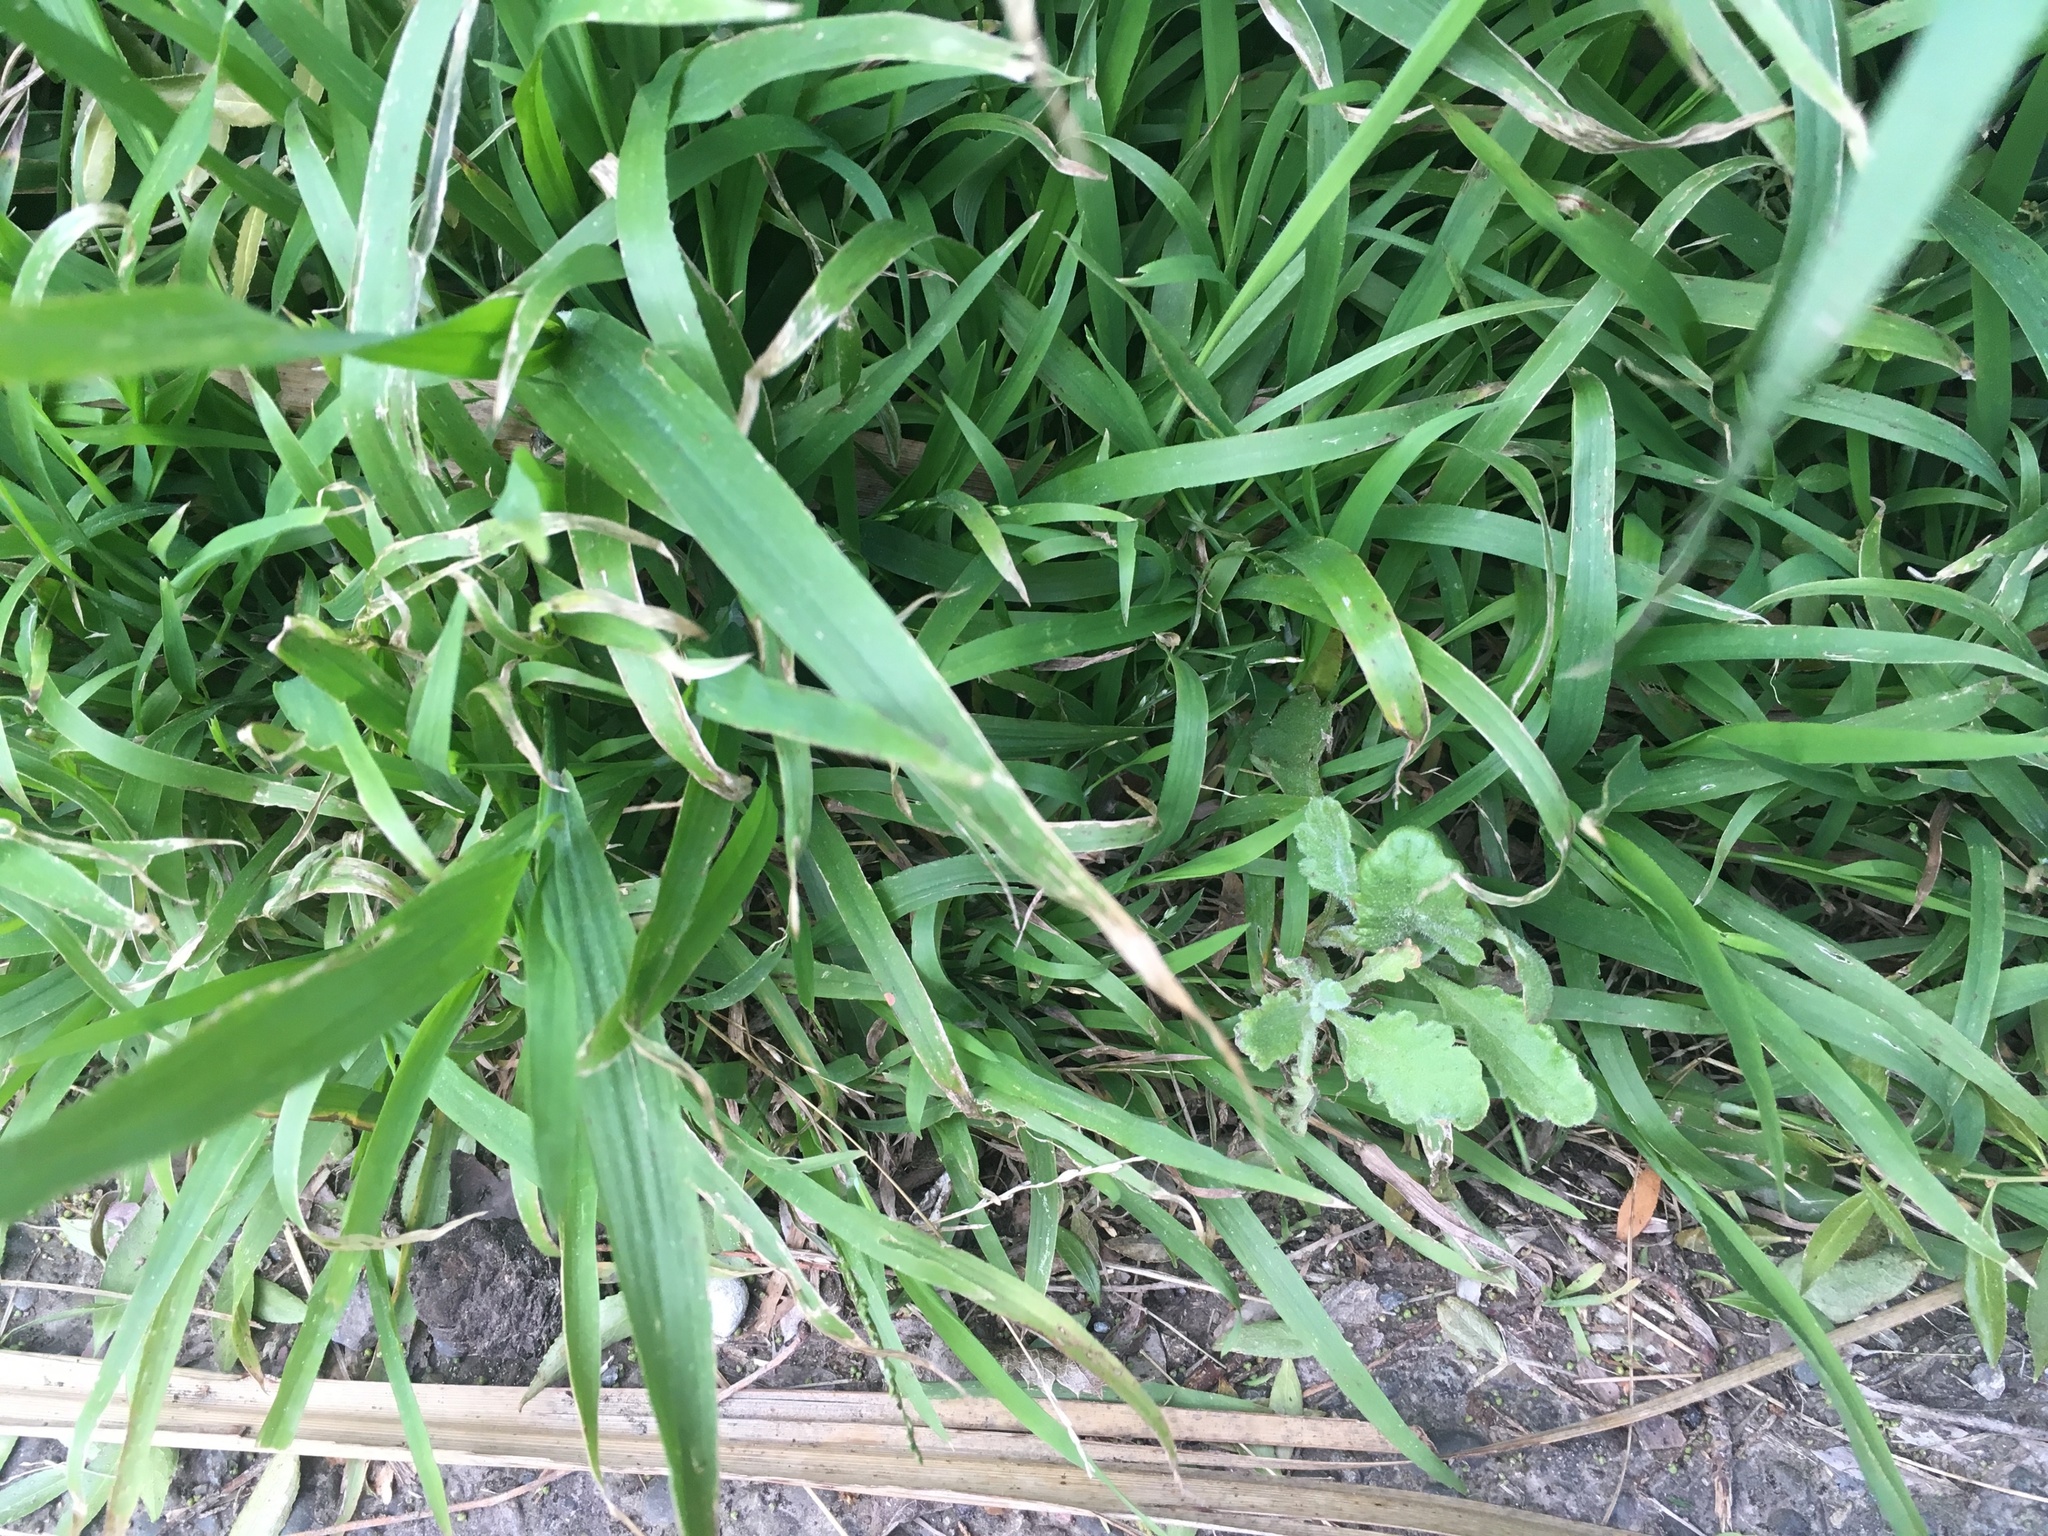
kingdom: Plantae
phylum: Tracheophyta
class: Magnoliopsida
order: Asterales
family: Asteraceae
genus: Senecio
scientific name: Senecio glomeratus
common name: Cutleaf burnweed
